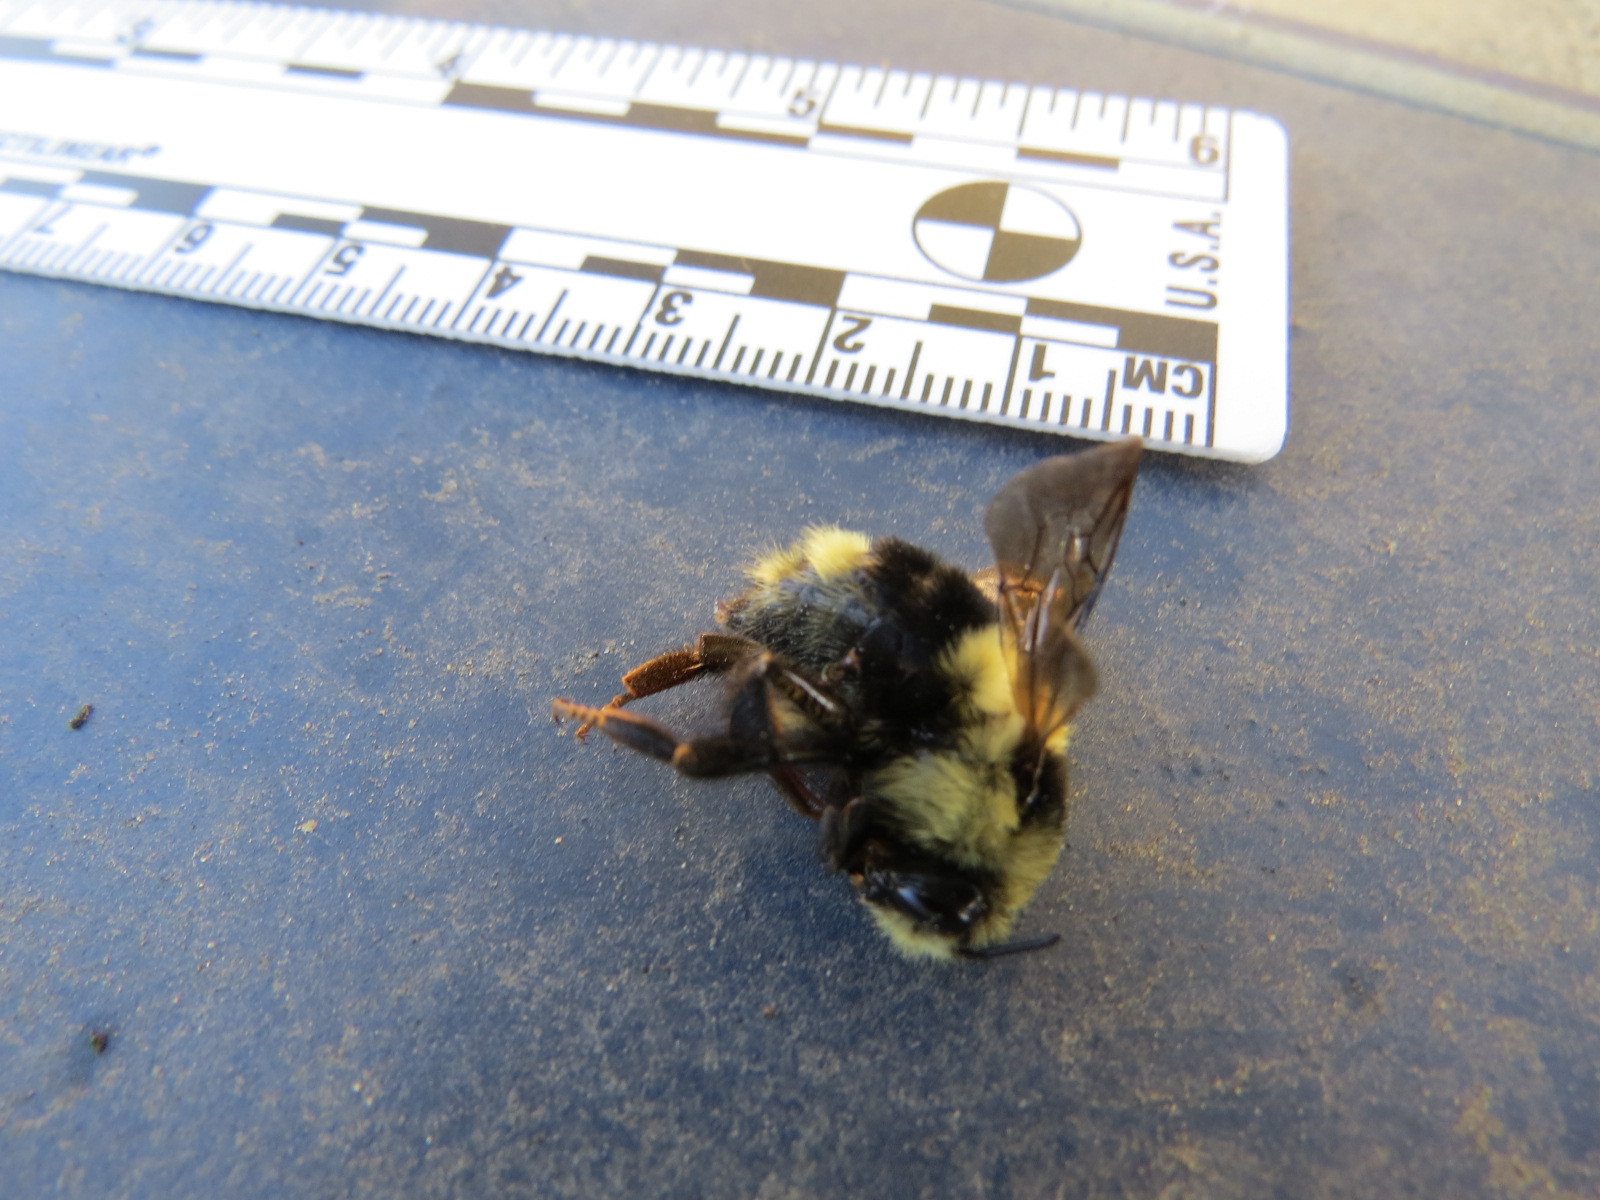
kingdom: Animalia
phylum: Arthropoda
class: Insecta
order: Hymenoptera
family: Apidae
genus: Bombus
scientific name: Bombus melanopygus
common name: Black tail bumble bee
